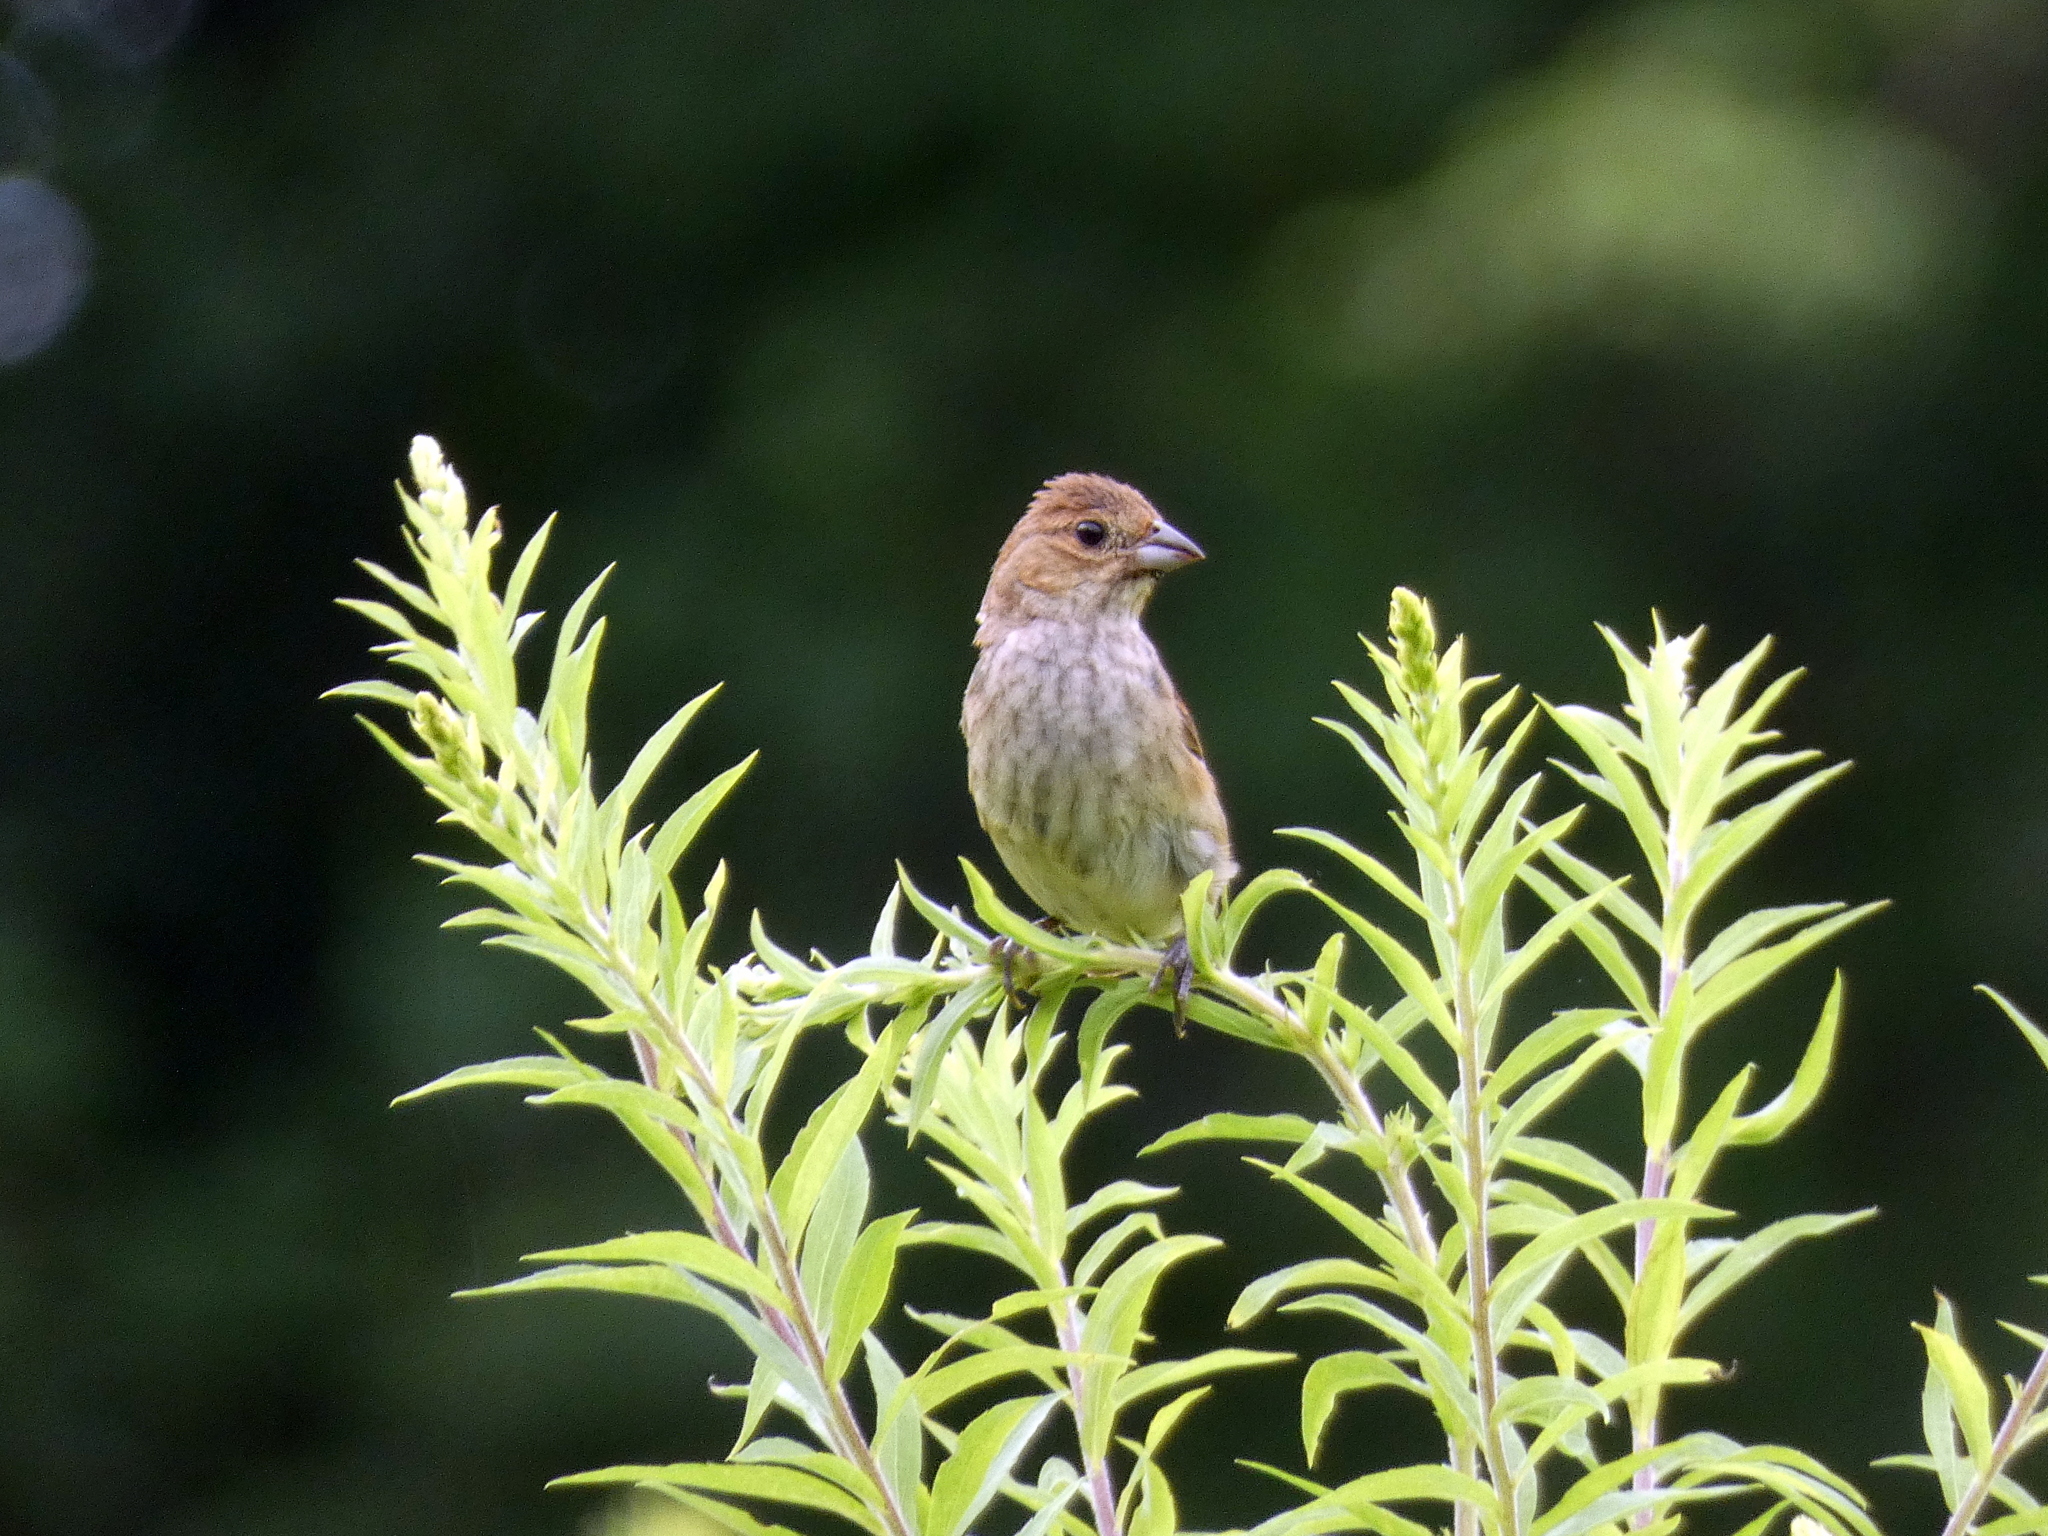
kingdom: Animalia
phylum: Chordata
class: Aves
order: Passeriformes
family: Cardinalidae
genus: Passerina
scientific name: Passerina cyanea
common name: Indigo bunting
